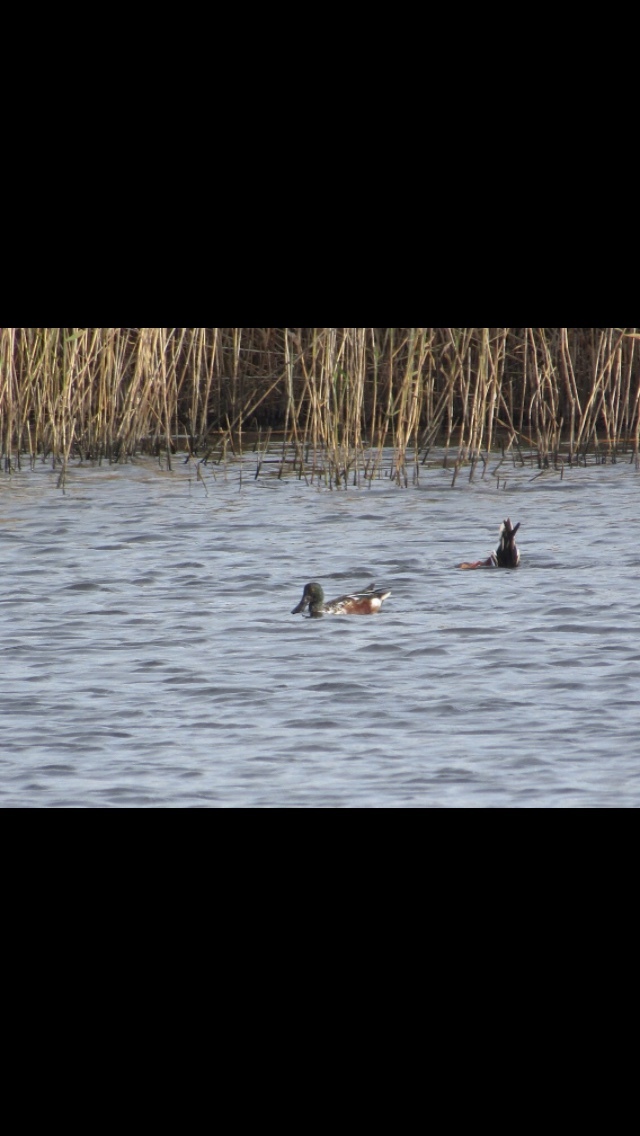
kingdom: Animalia
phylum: Chordata
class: Aves
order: Anseriformes
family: Anatidae
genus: Spatula
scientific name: Spatula clypeata
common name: Northern shoveler
